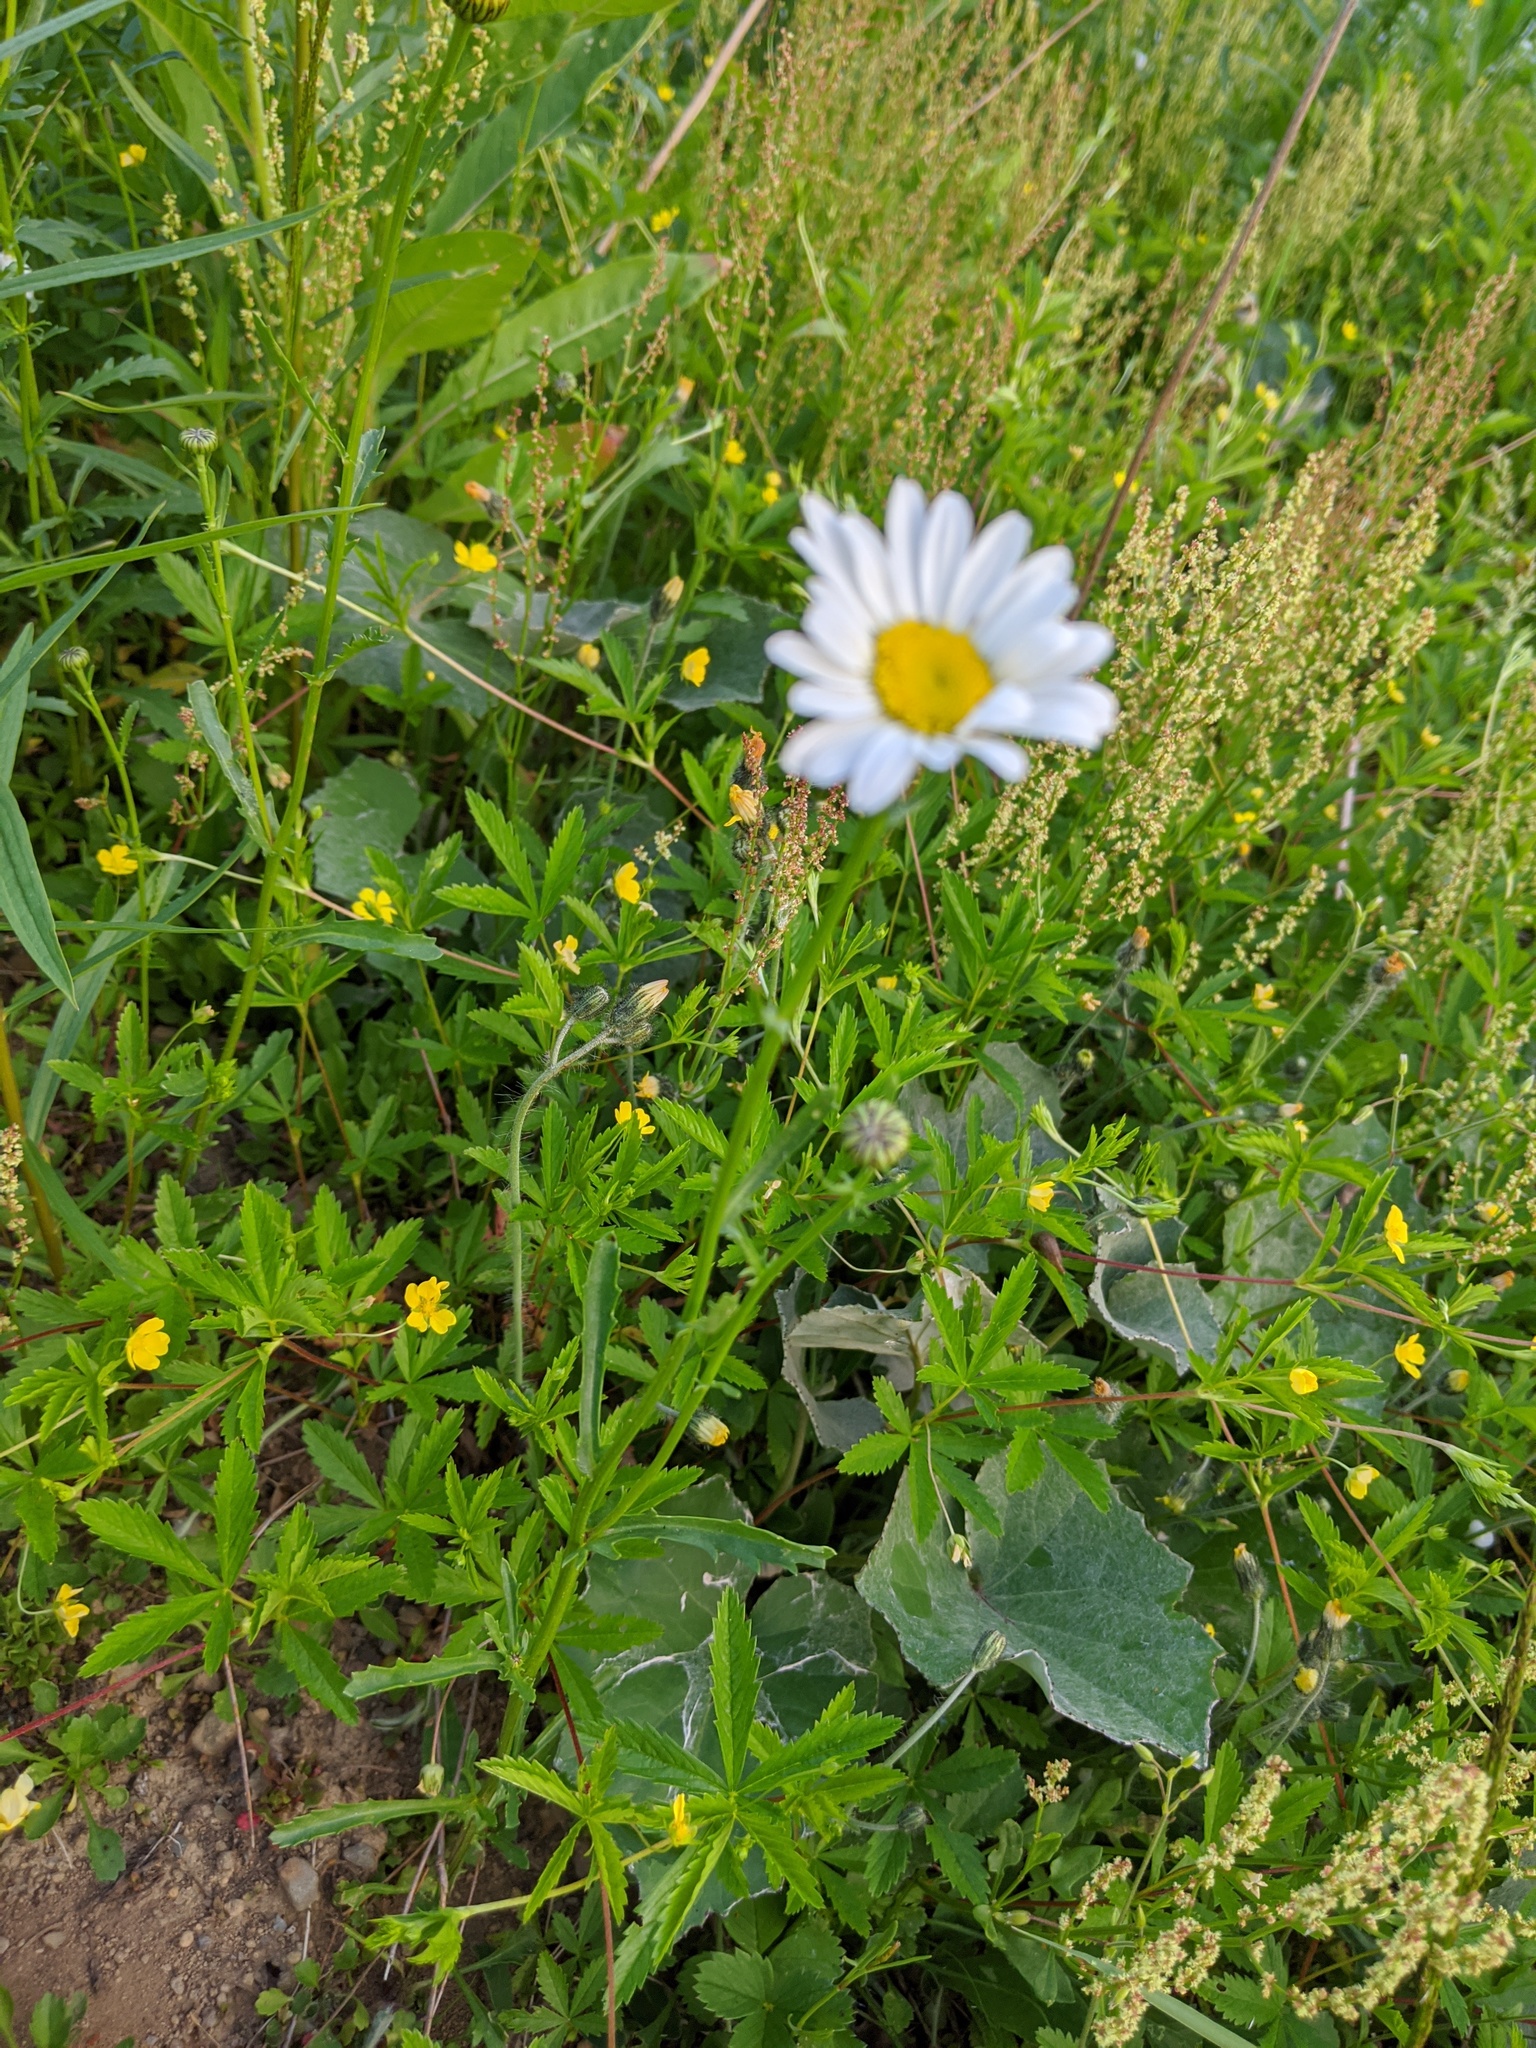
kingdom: Plantae
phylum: Tracheophyta
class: Magnoliopsida
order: Asterales
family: Asteraceae
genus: Leucanthemum
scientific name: Leucanthemum vulgare
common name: Oxeye daisy
